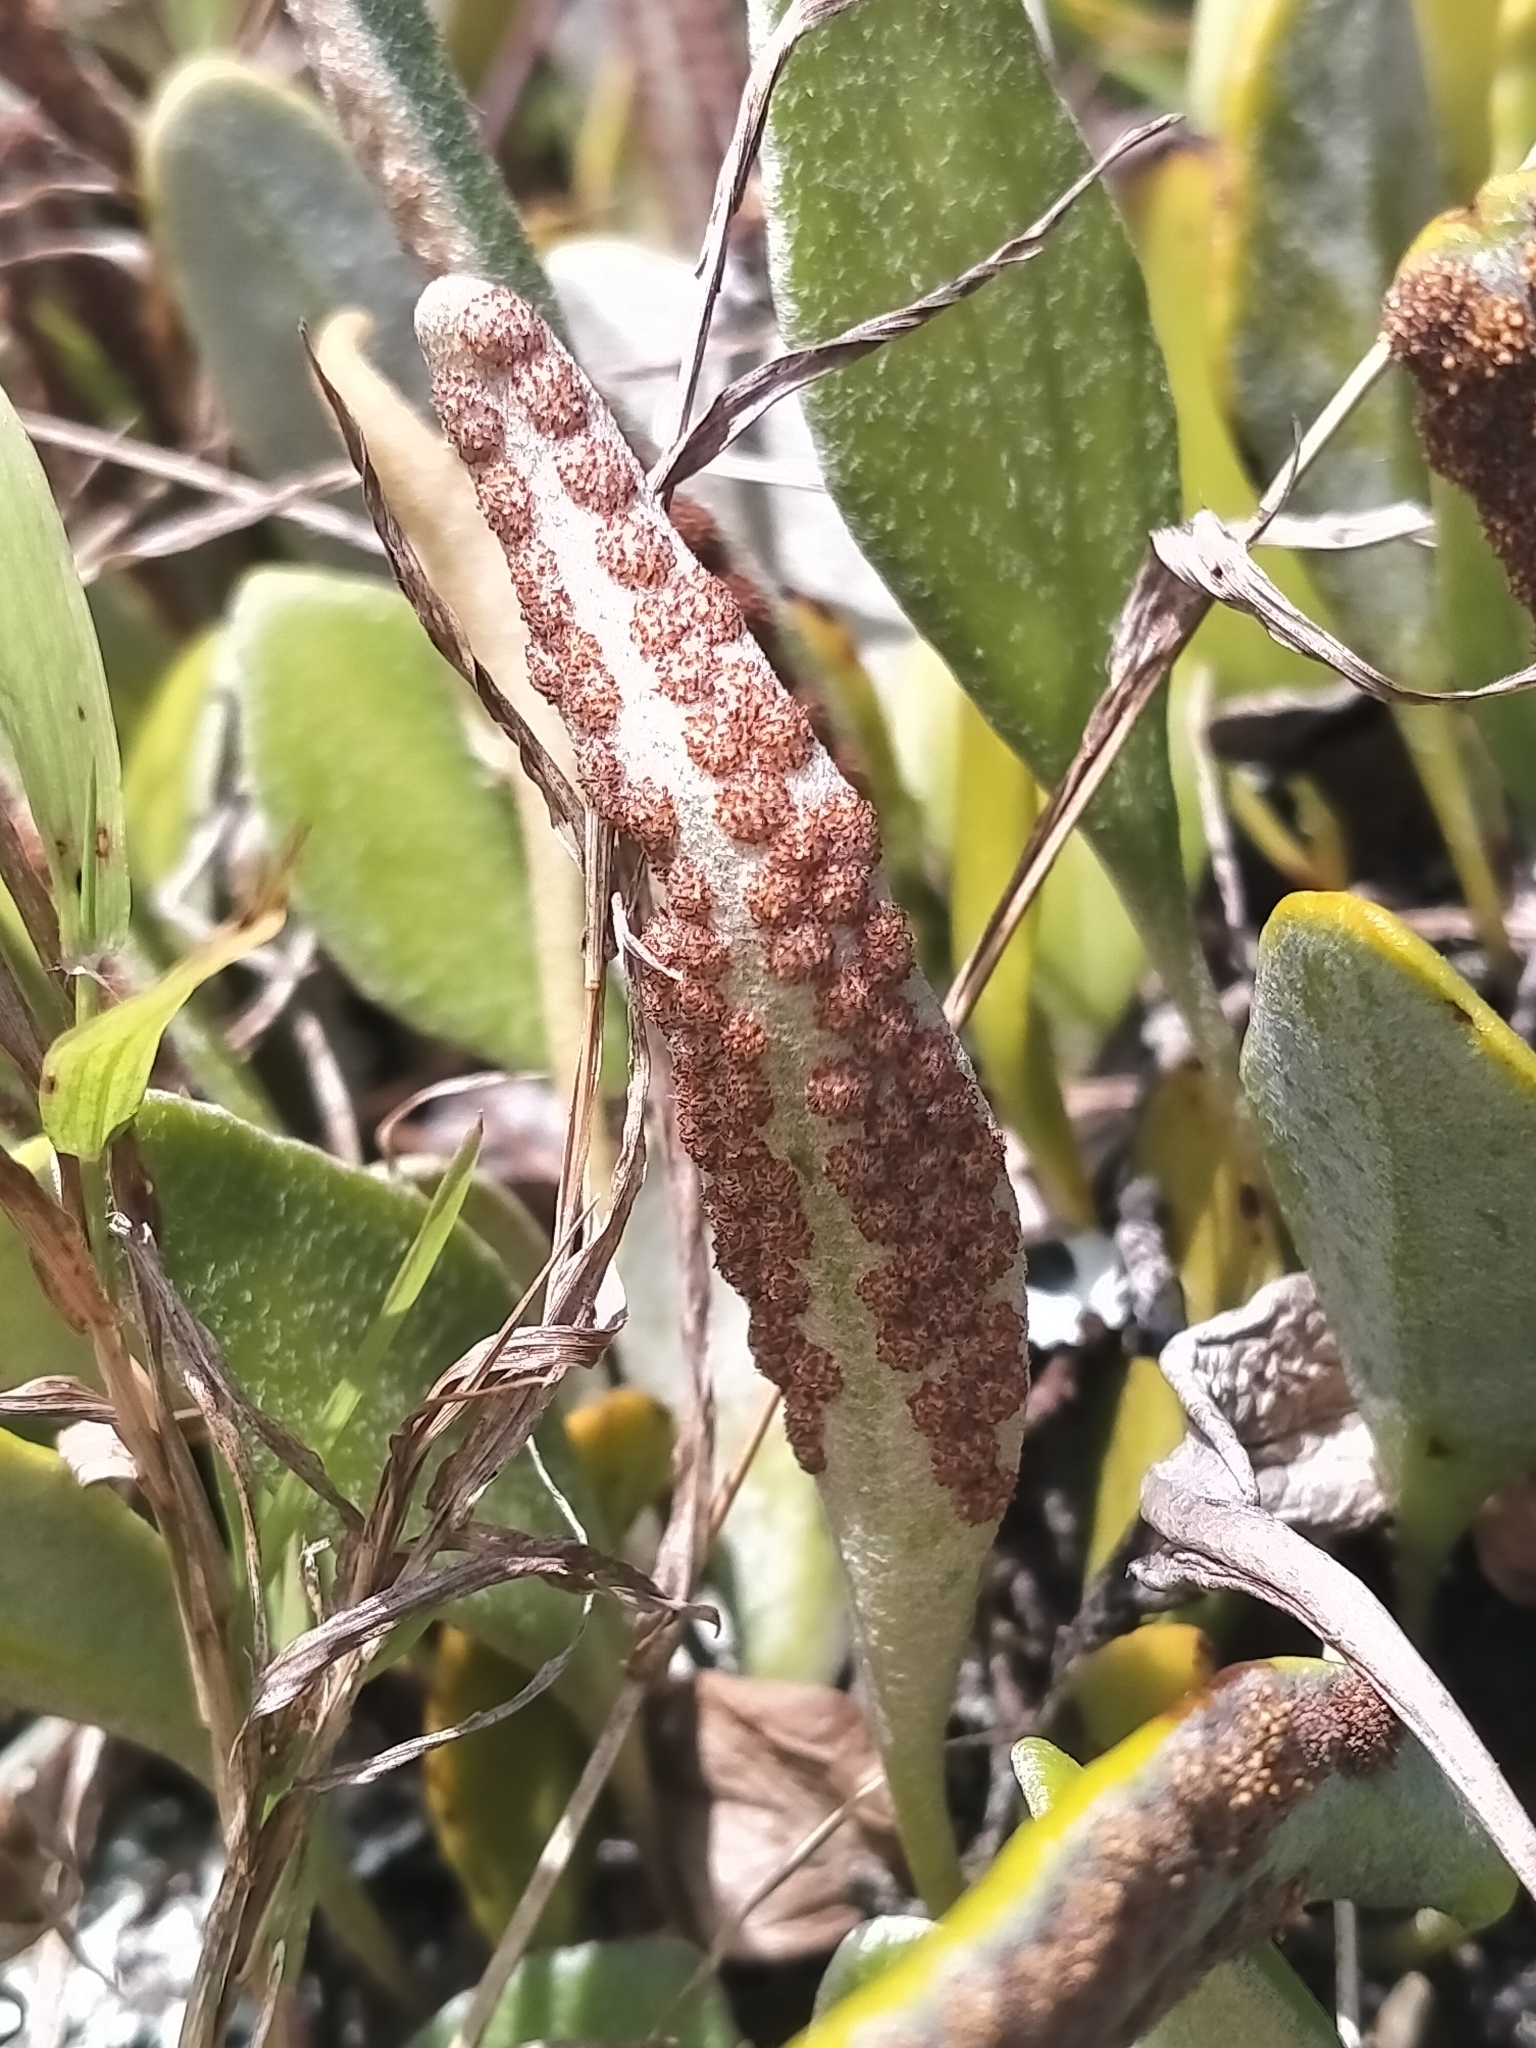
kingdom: Plantae
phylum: Tracheophyta
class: Polypodiopsida
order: Polypodiales
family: Polypodiaceae
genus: Pyrrosia
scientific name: Pyrrosia eleagnifolia
